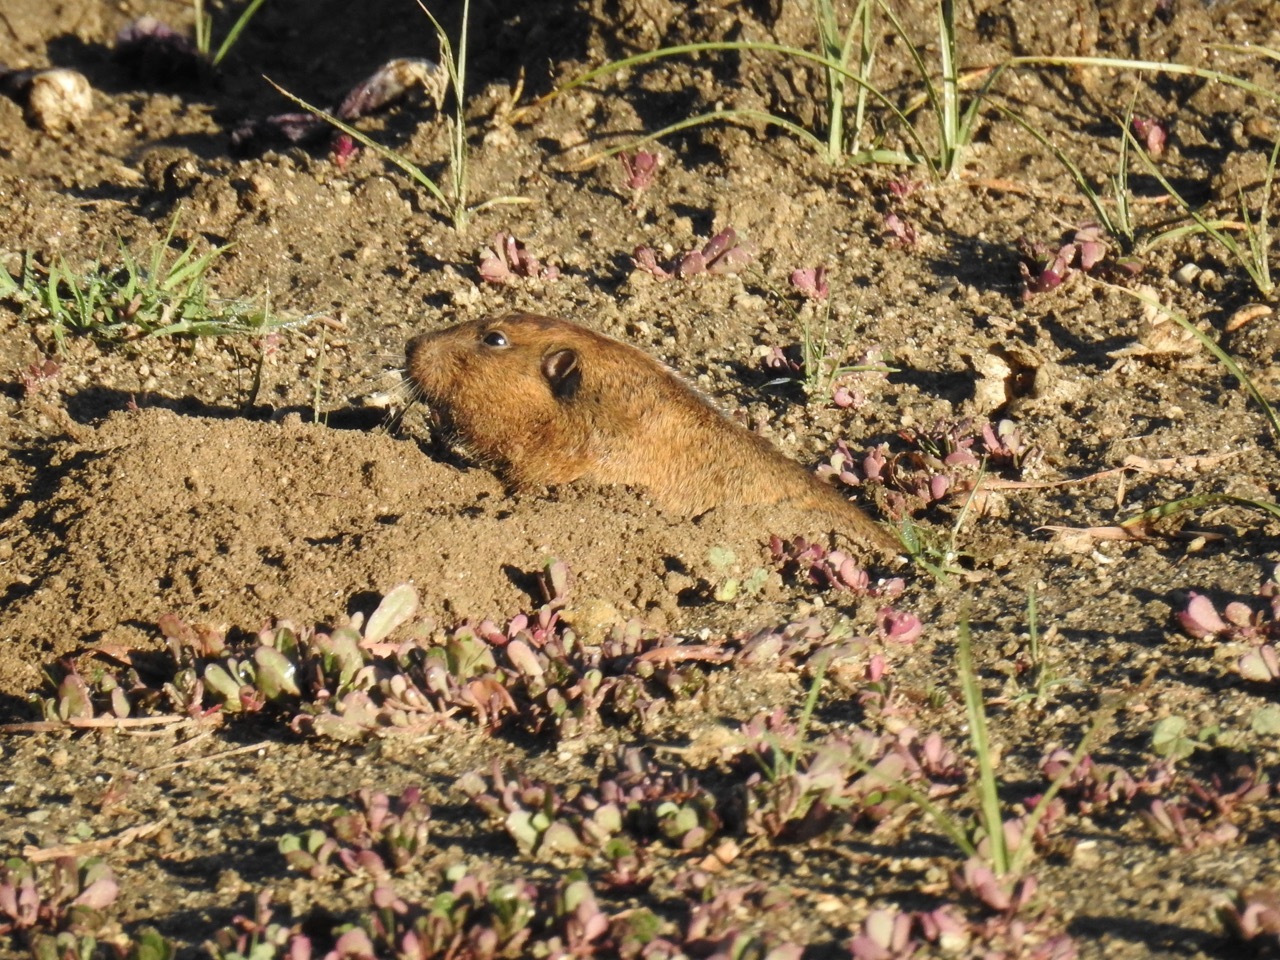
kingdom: Animalia
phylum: Chordata
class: Mammalia
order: Rodentia
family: Geomyidae
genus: Thomomys
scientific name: Thomomys bottae
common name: Botta's pocket gopher
